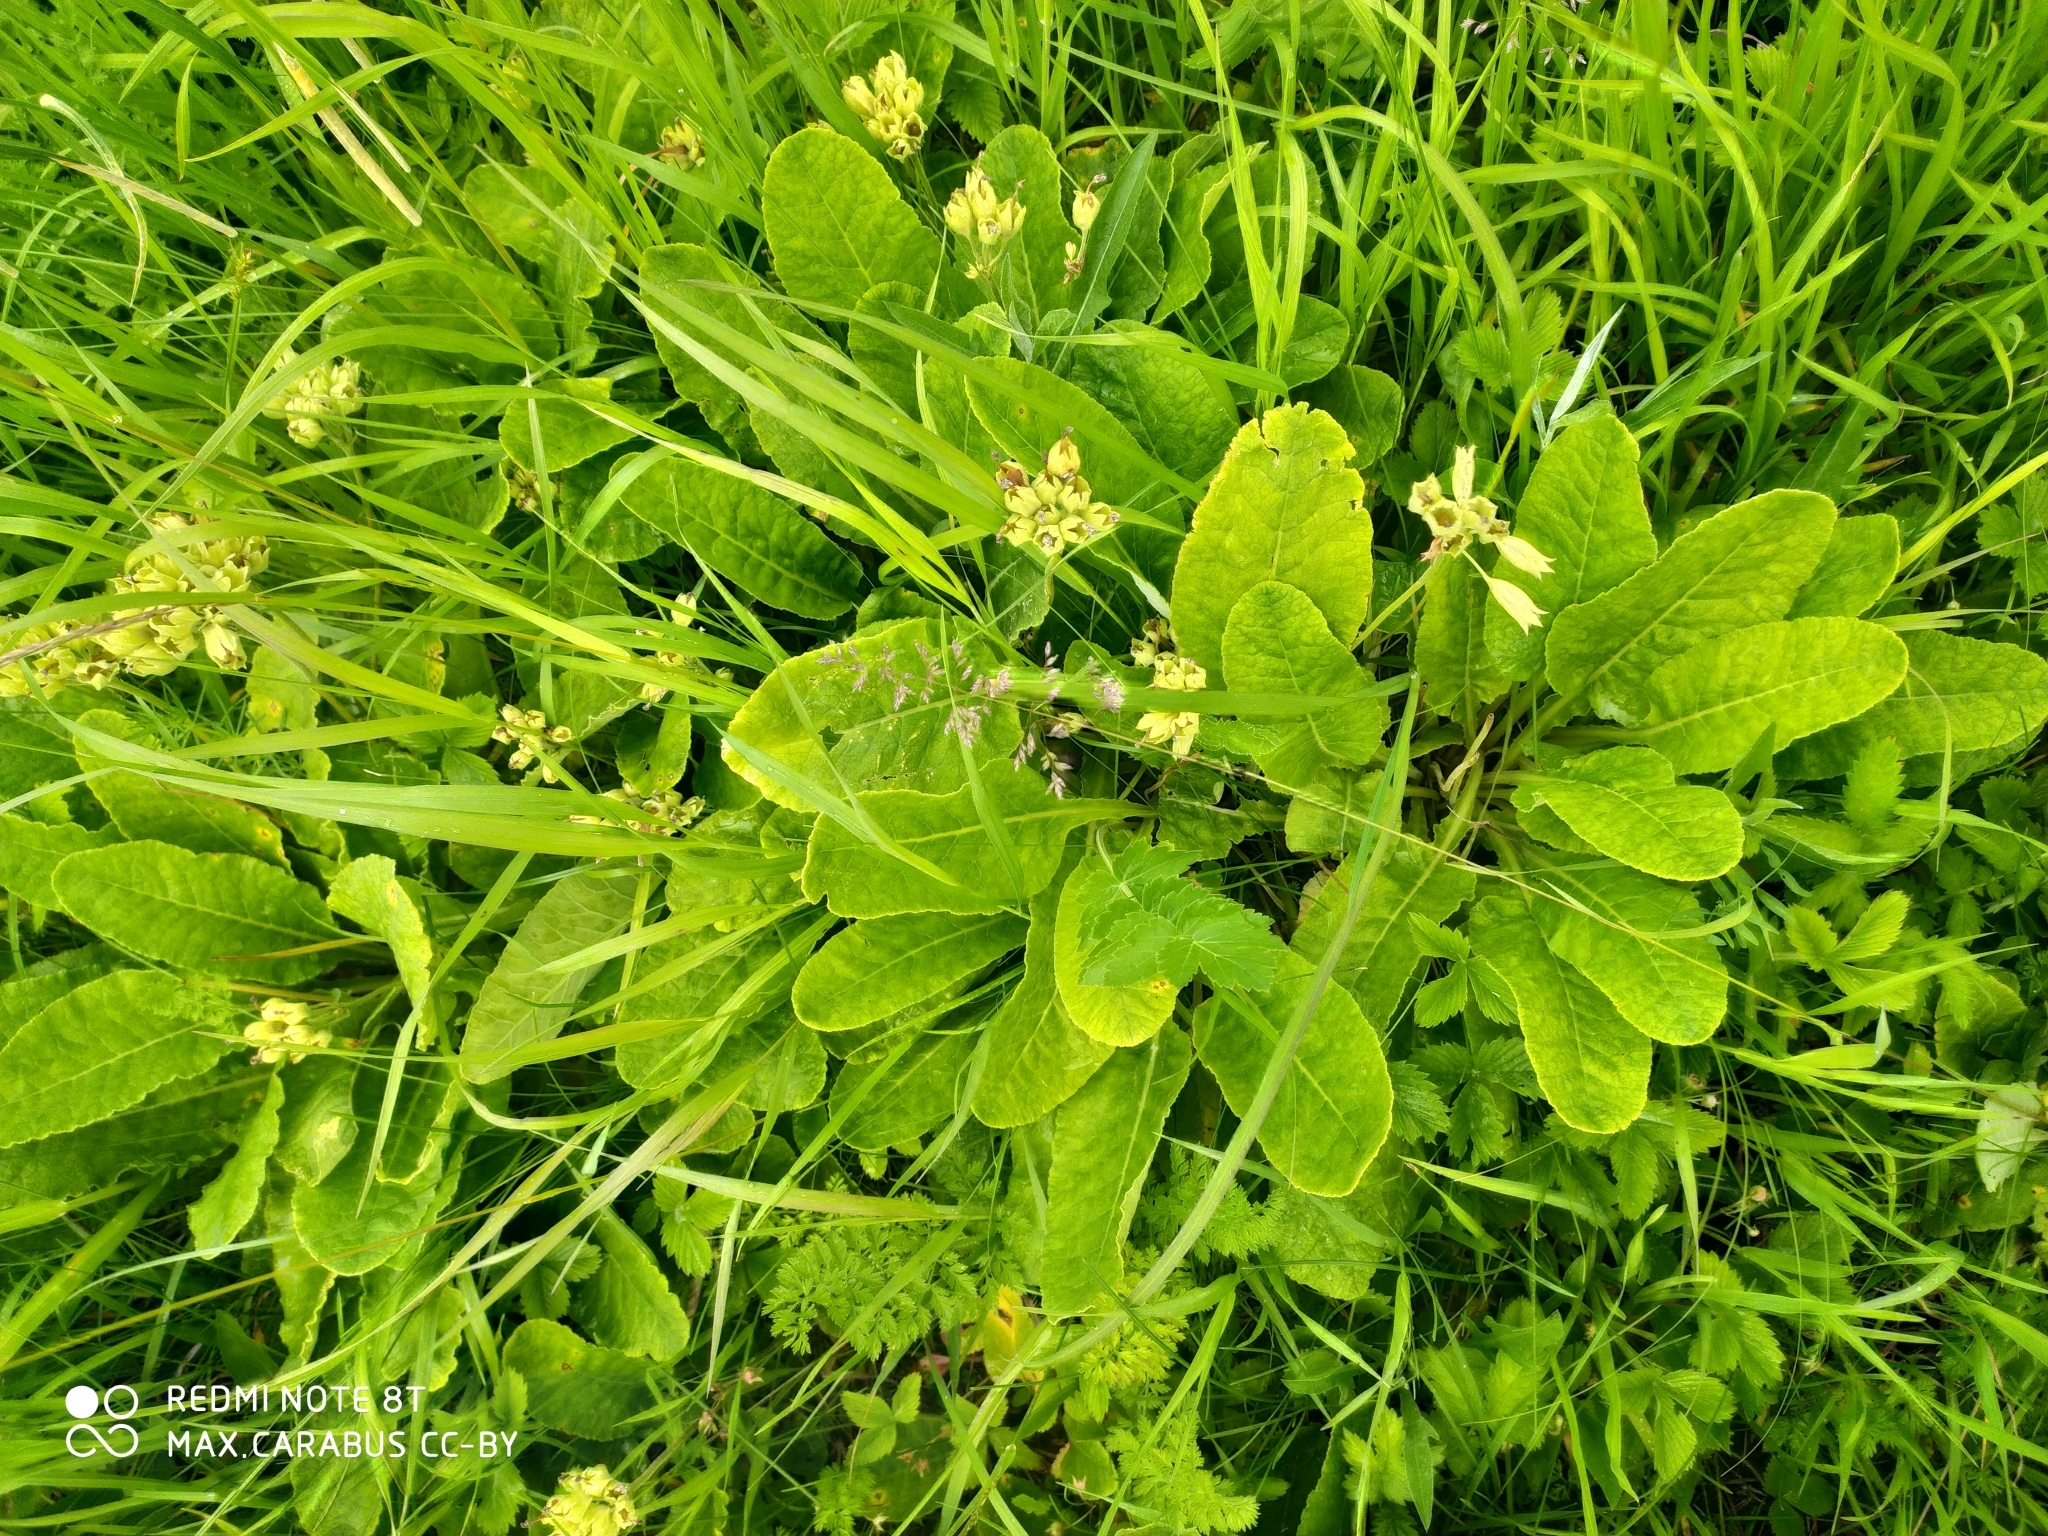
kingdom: Plantae
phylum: Tracheophyta
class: Magnoliopsida
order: Ericales
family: Primulaceae
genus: Primula
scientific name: Primula veris
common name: Cowslip
